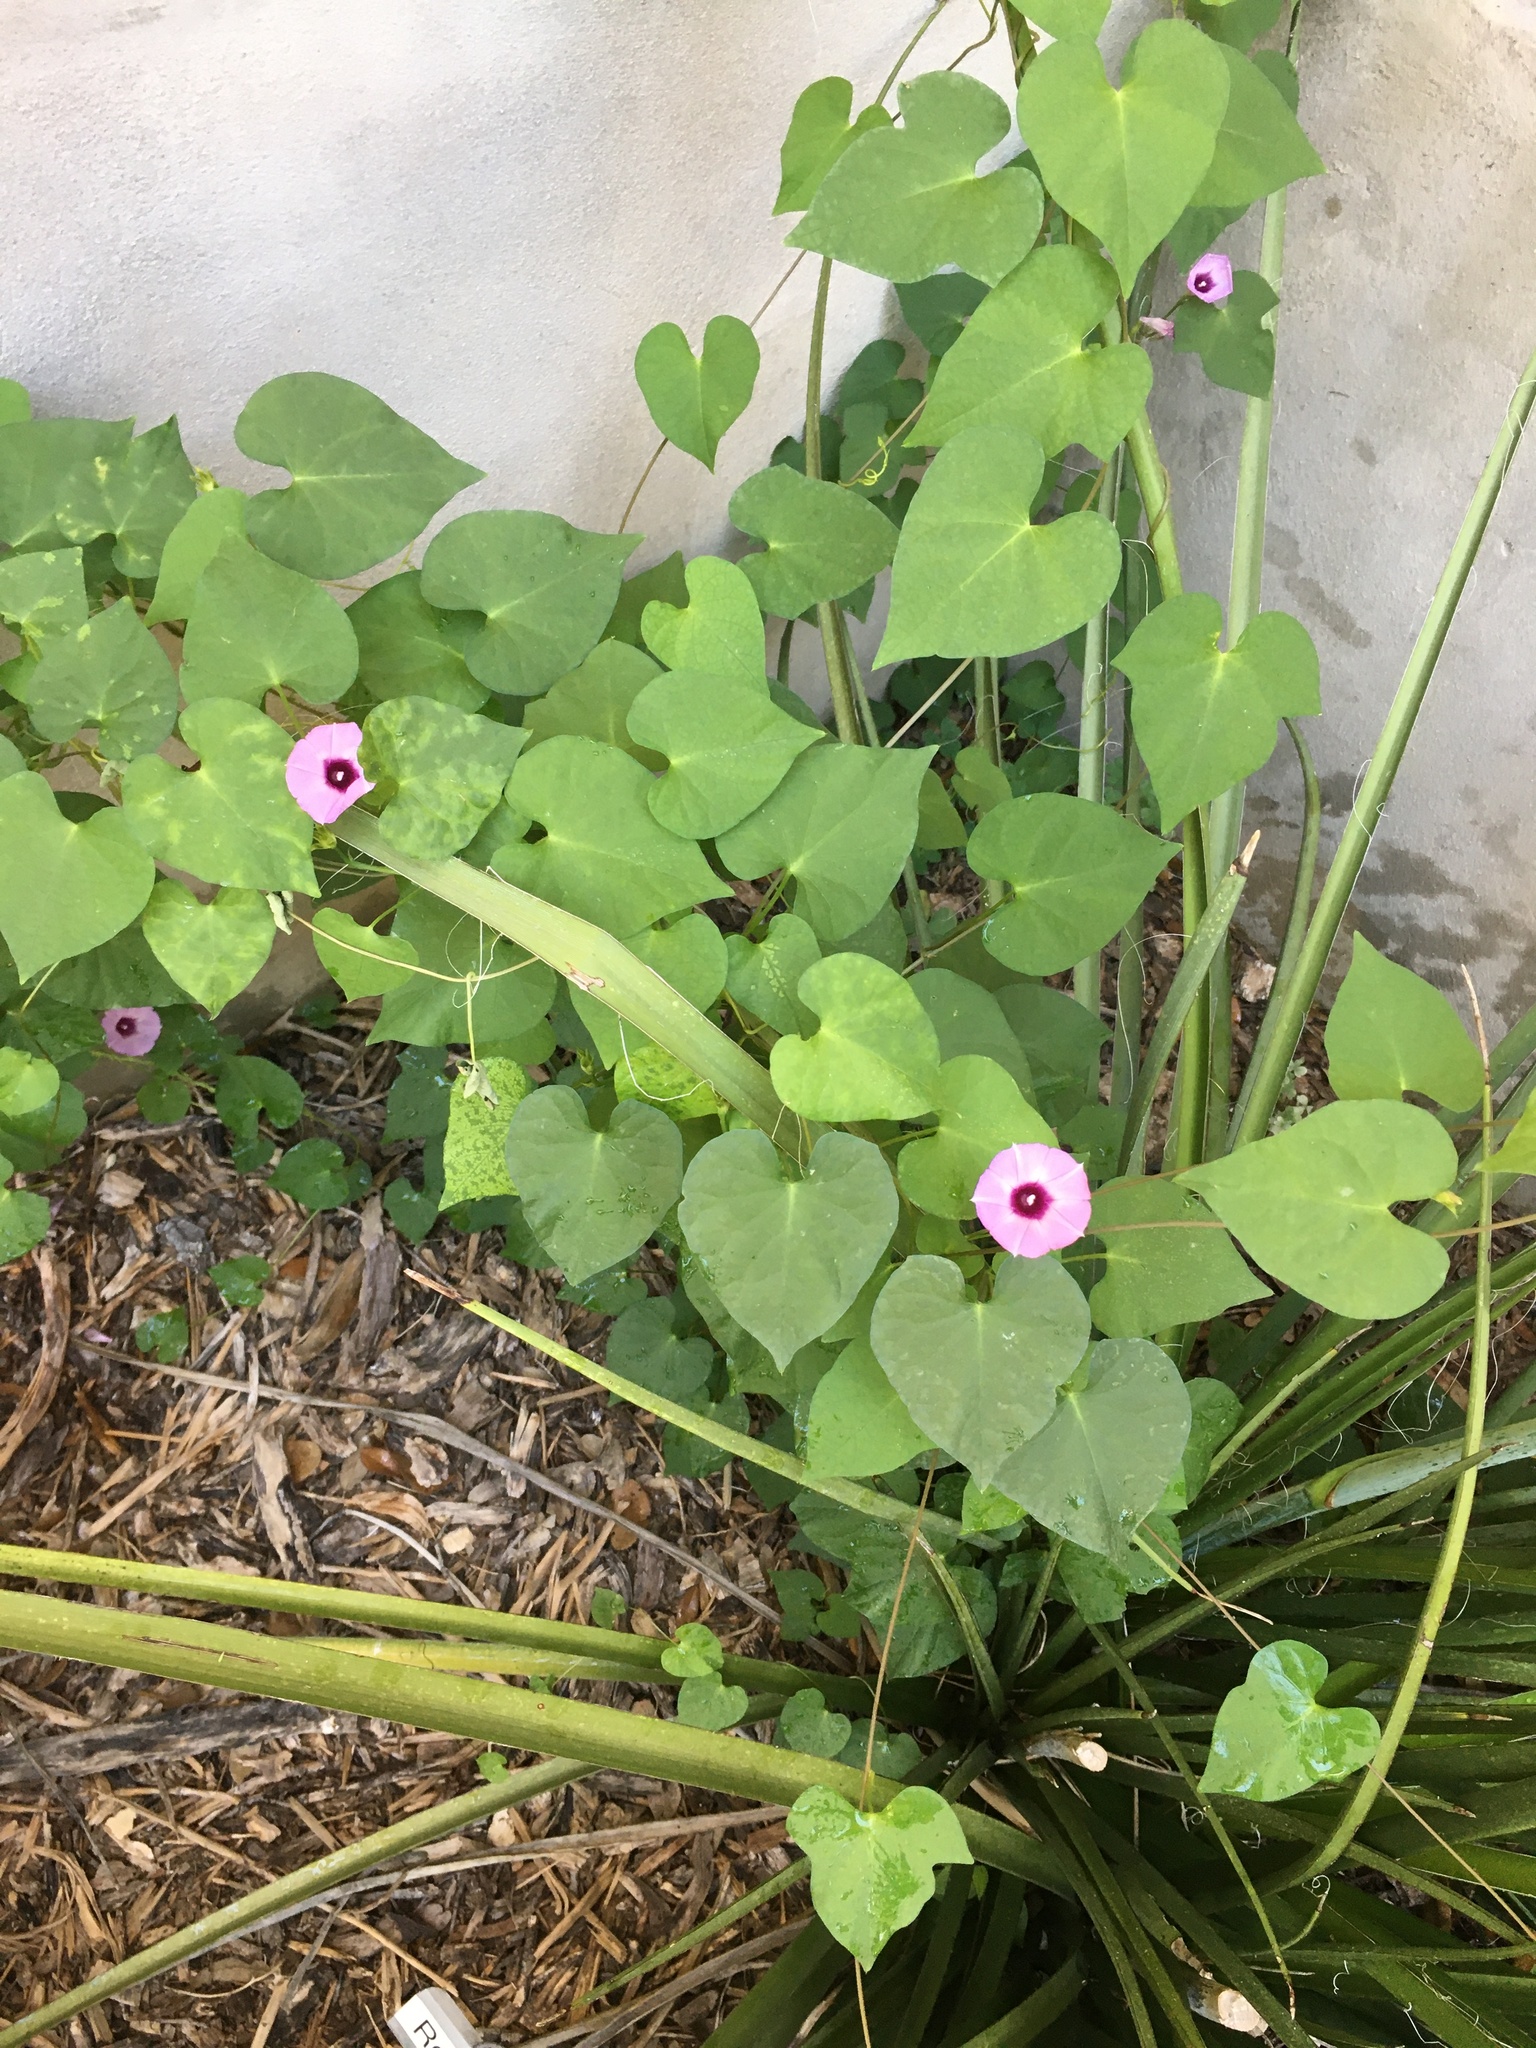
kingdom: Plantae
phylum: Tracheophyta
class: Magnoliopsida
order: Solanales
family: Convolvulaceae
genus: Ipomoea
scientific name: Ipomoea cordatotriloba
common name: Cotton morning glory
